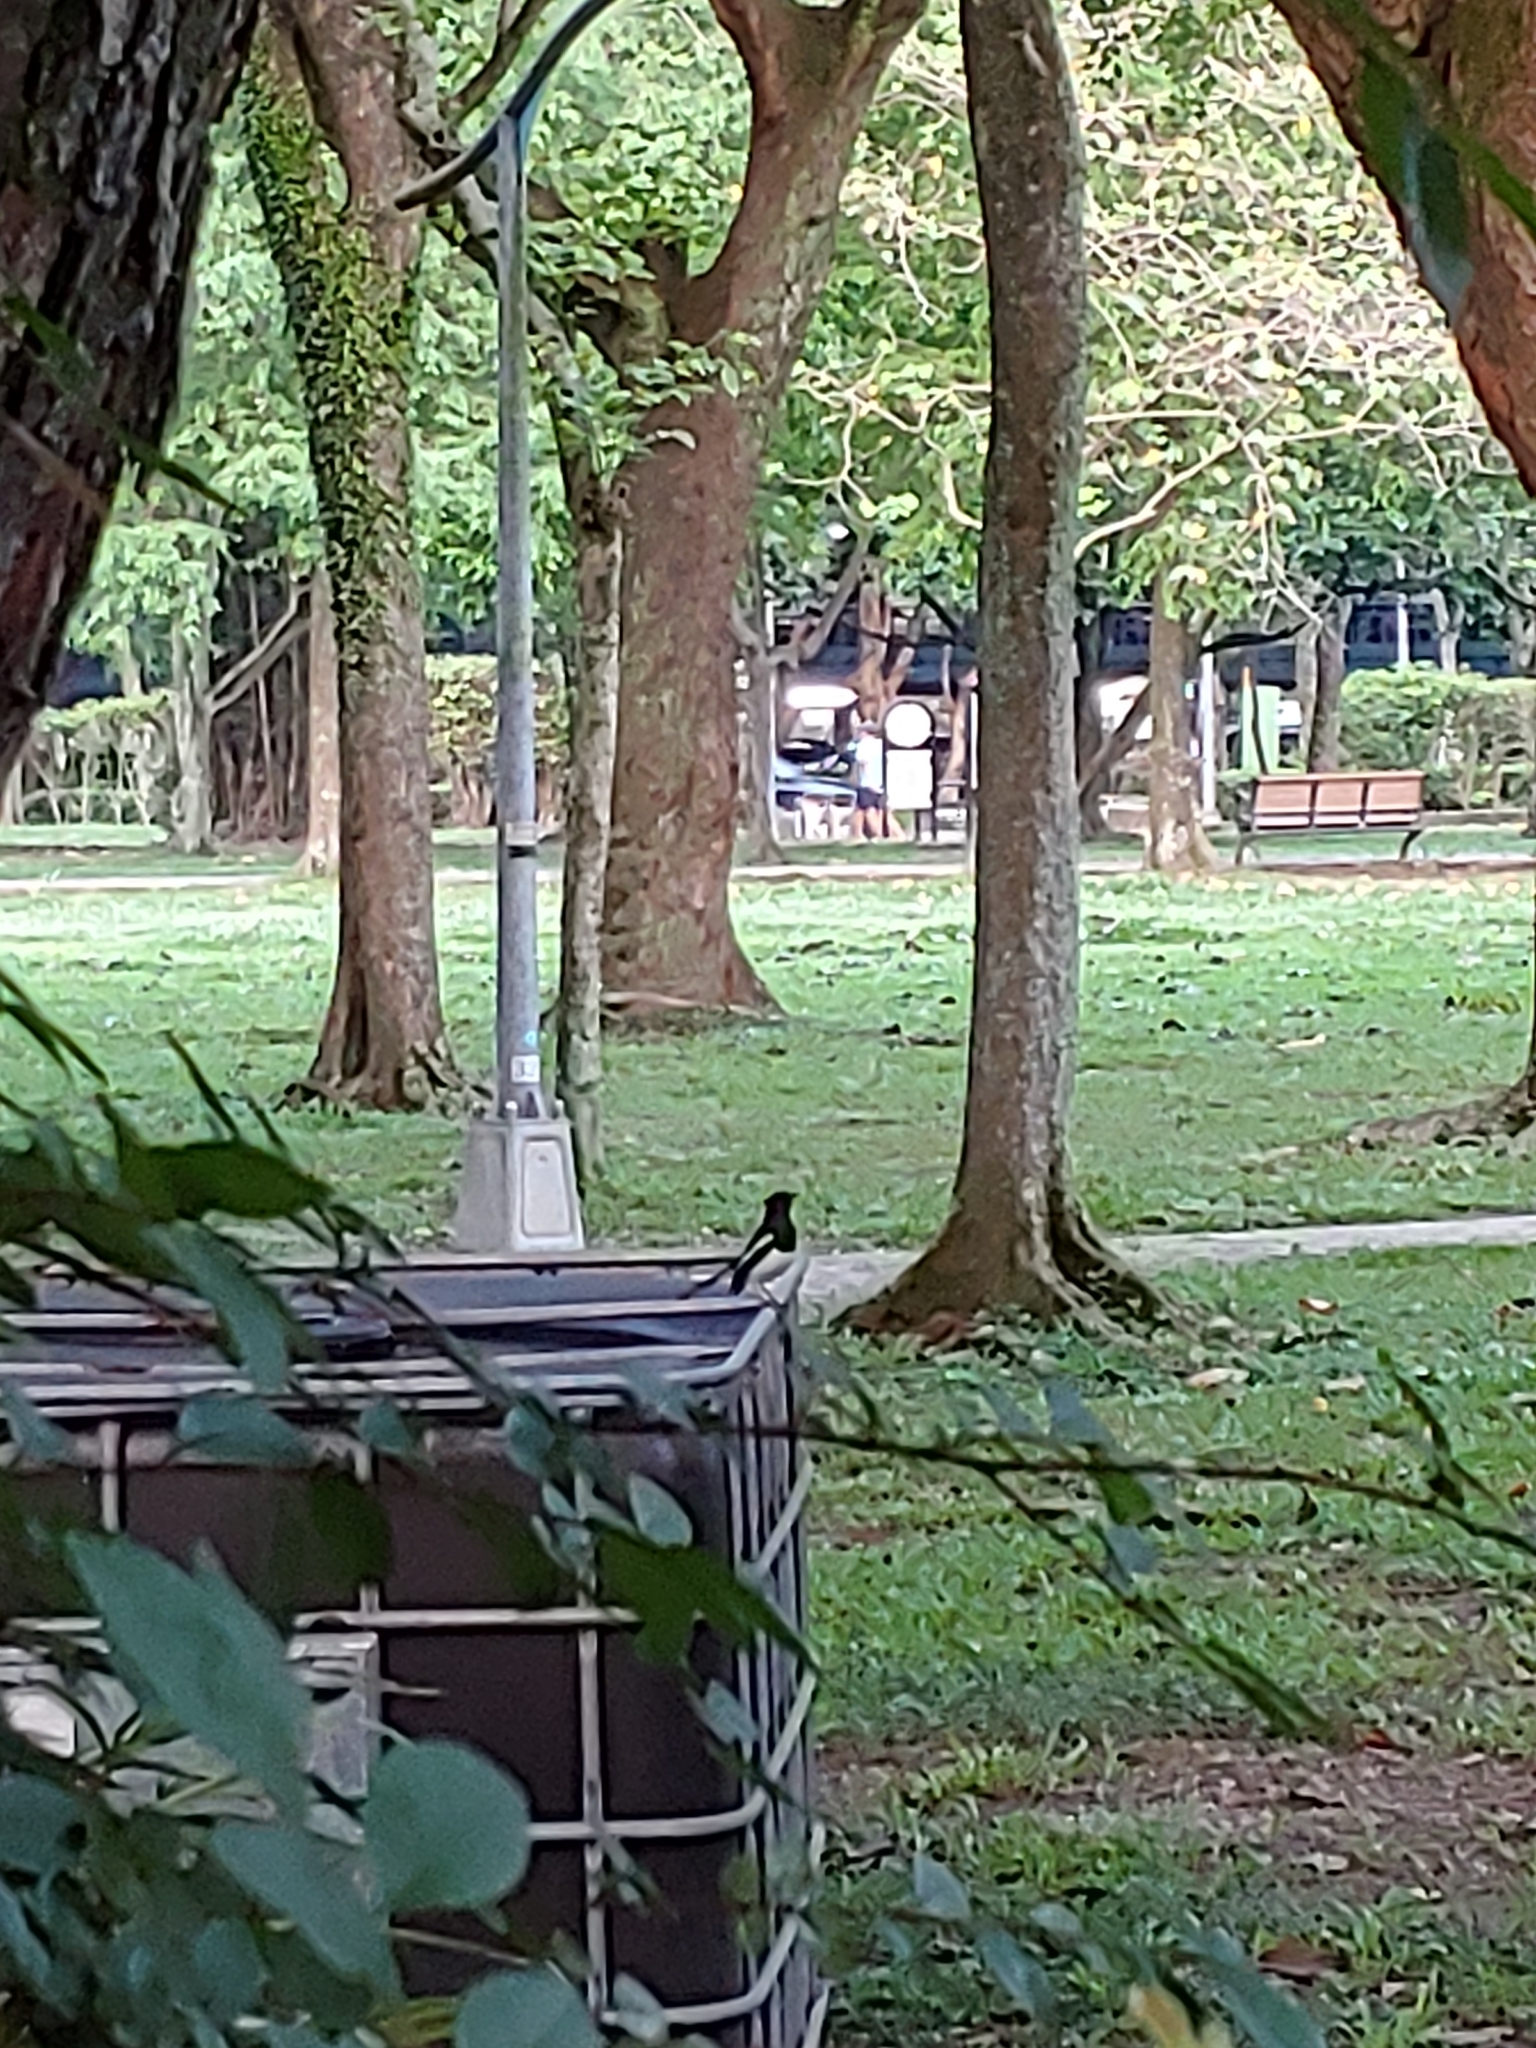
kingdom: Animalia
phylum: Chordata
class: Aves
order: Passeriformes
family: Muscicapidae
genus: Copsychus
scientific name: Copsychus saularis
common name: Oriental magpie-robin
